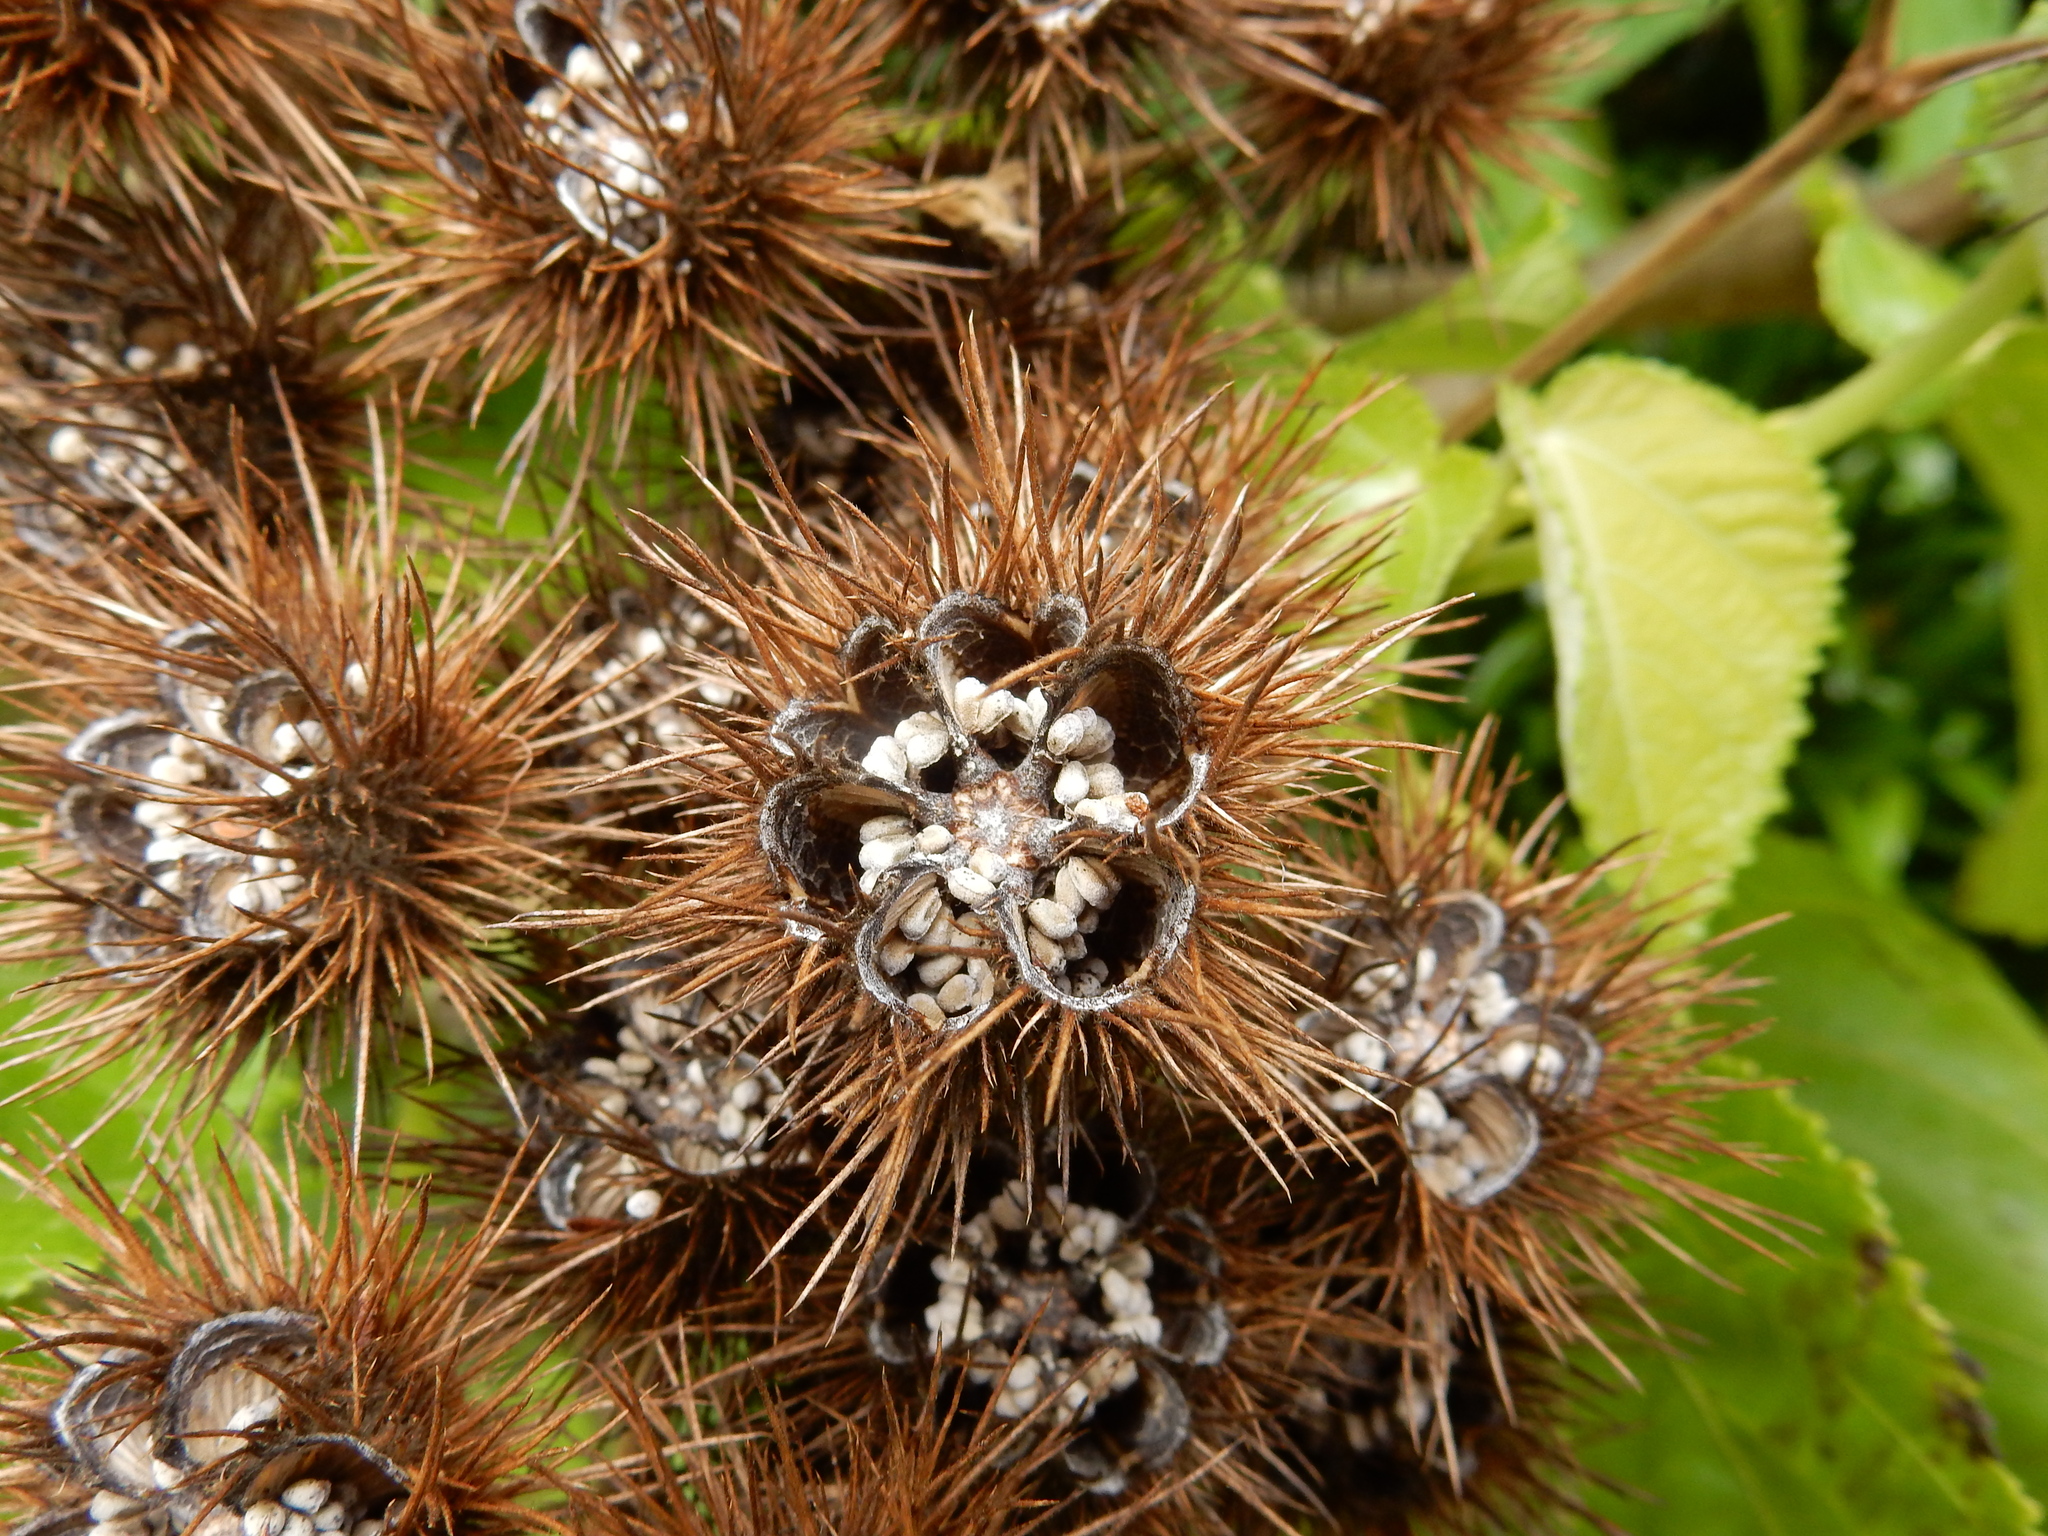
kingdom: Plantae
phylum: Tracheophyta
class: Magnoliopsida
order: Malvales
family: Malvaceae
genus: Entelea
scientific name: Entelea arborescens
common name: New zealand-mulberry
